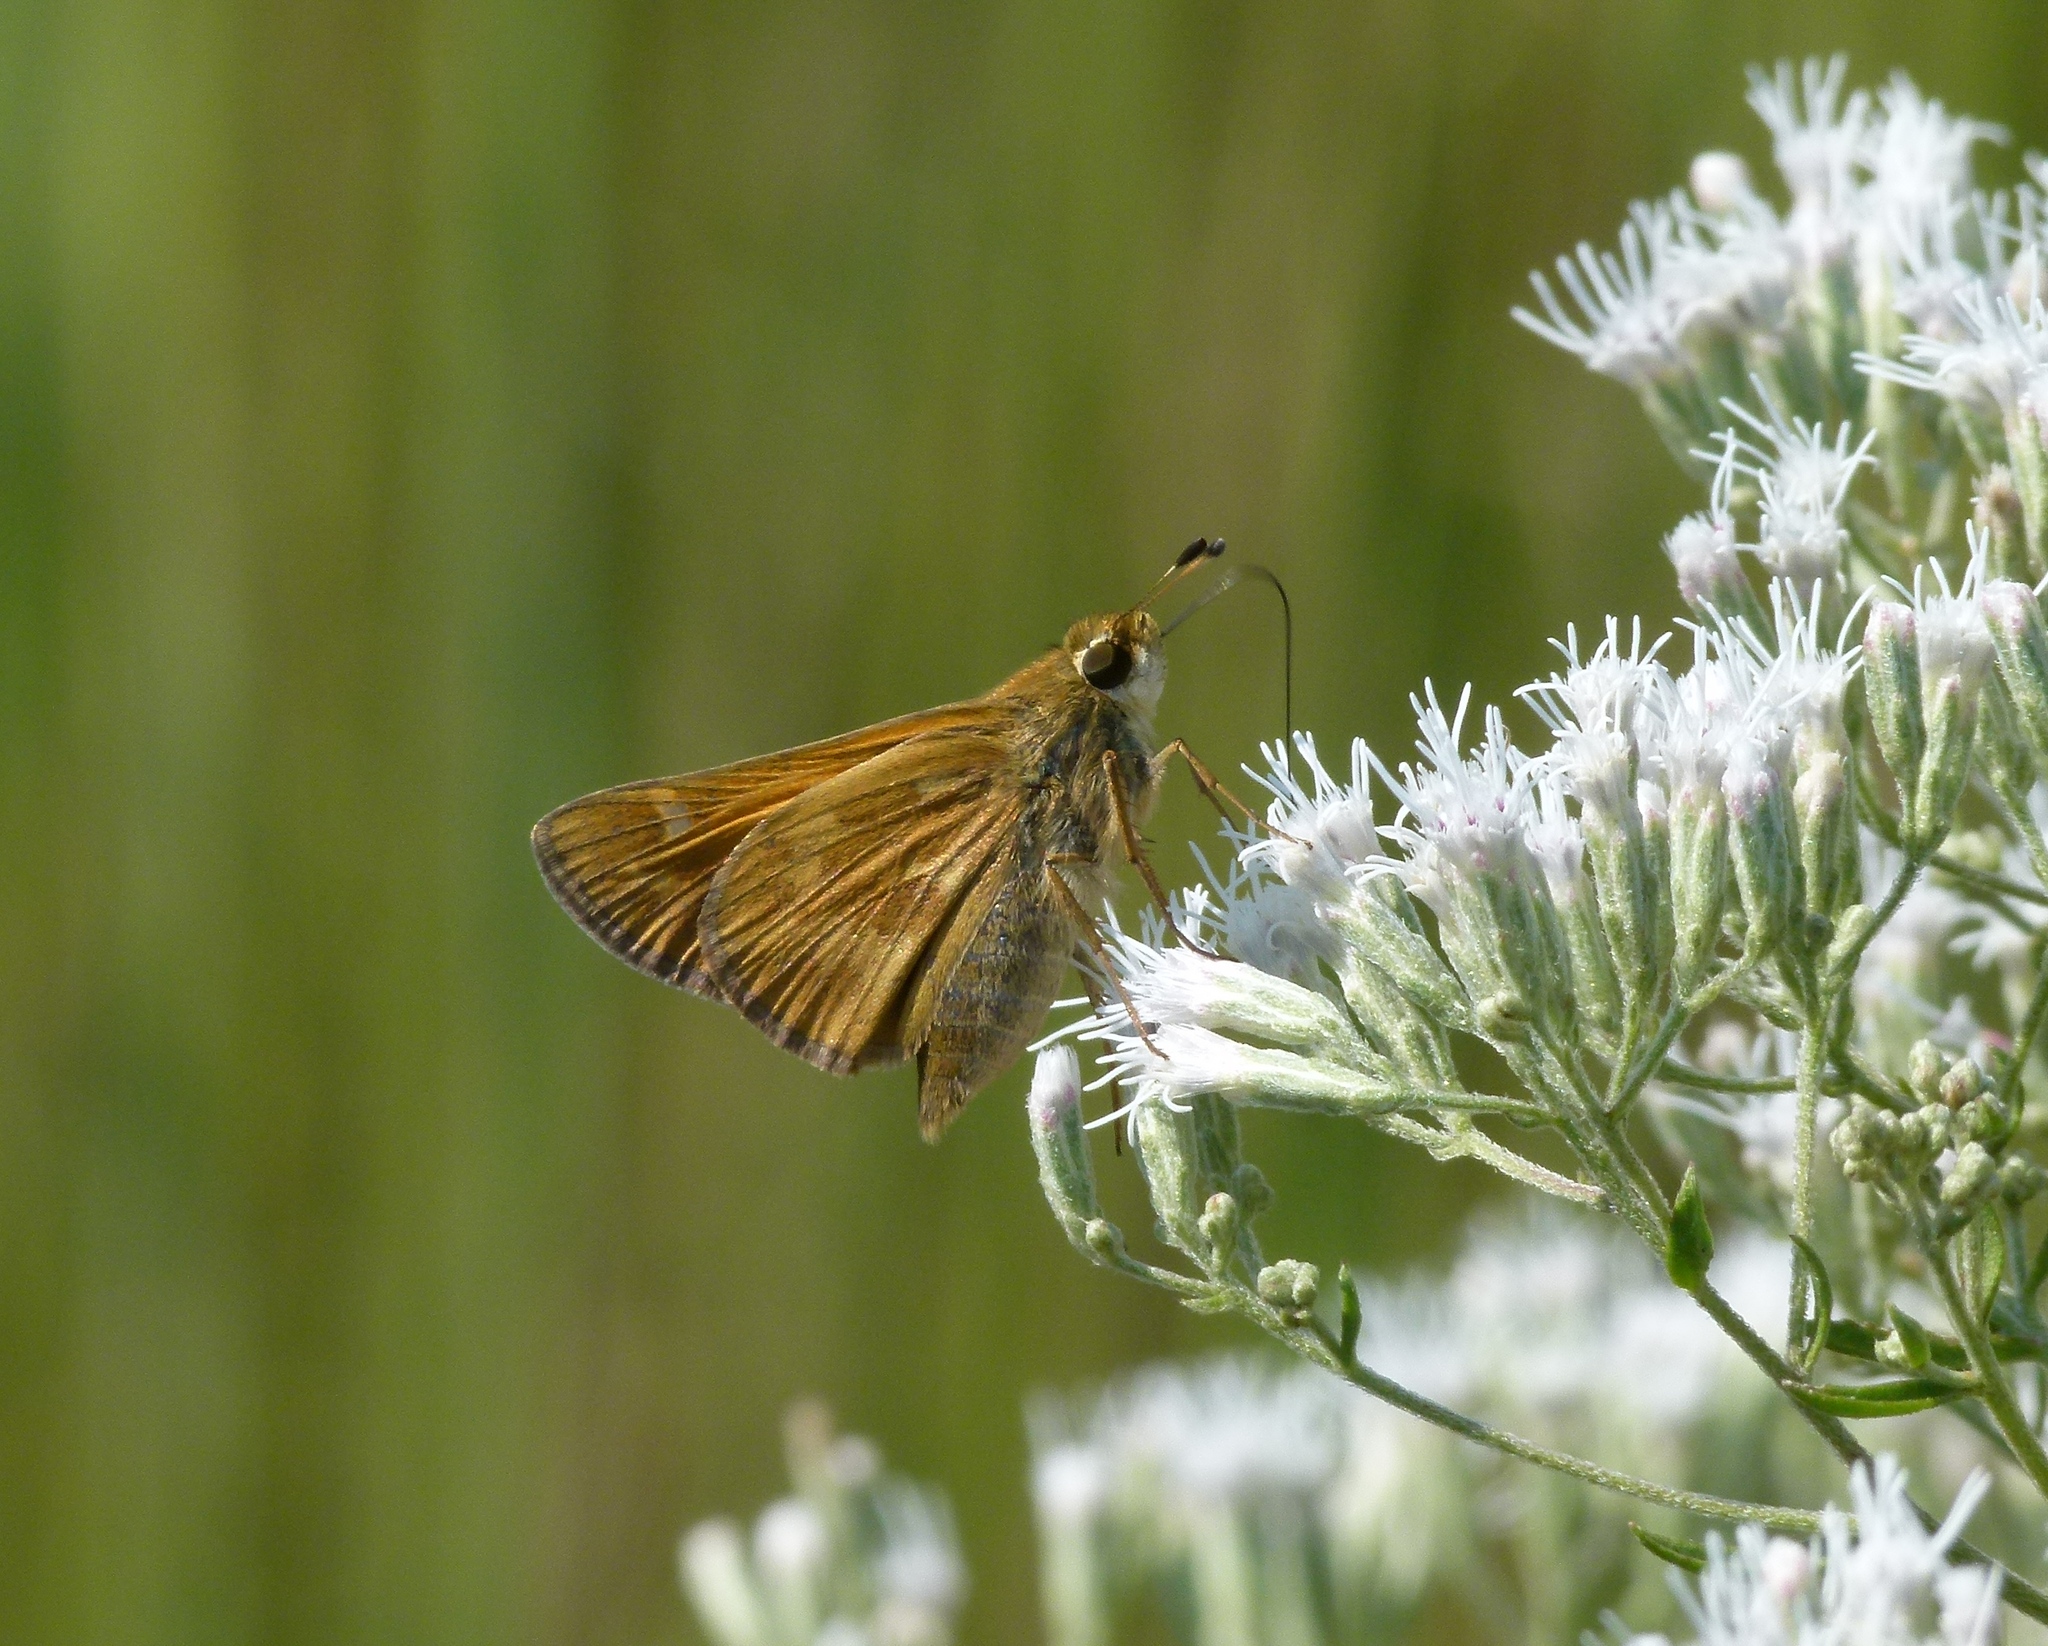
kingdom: Animalia
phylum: Arthropoda
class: Insecta
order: Lepidoptera
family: Hesperiidae
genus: Atalopedes
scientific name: Atalopedes
